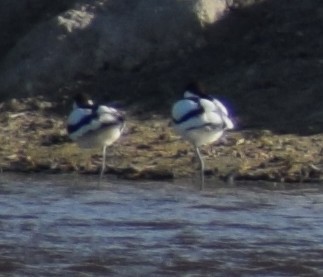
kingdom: Animalia
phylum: Chordata
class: Aves
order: Charadriiformes
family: Recurvirostridae
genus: Recurvirostra
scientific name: Recurvirostra avosetta
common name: Pied avocet
